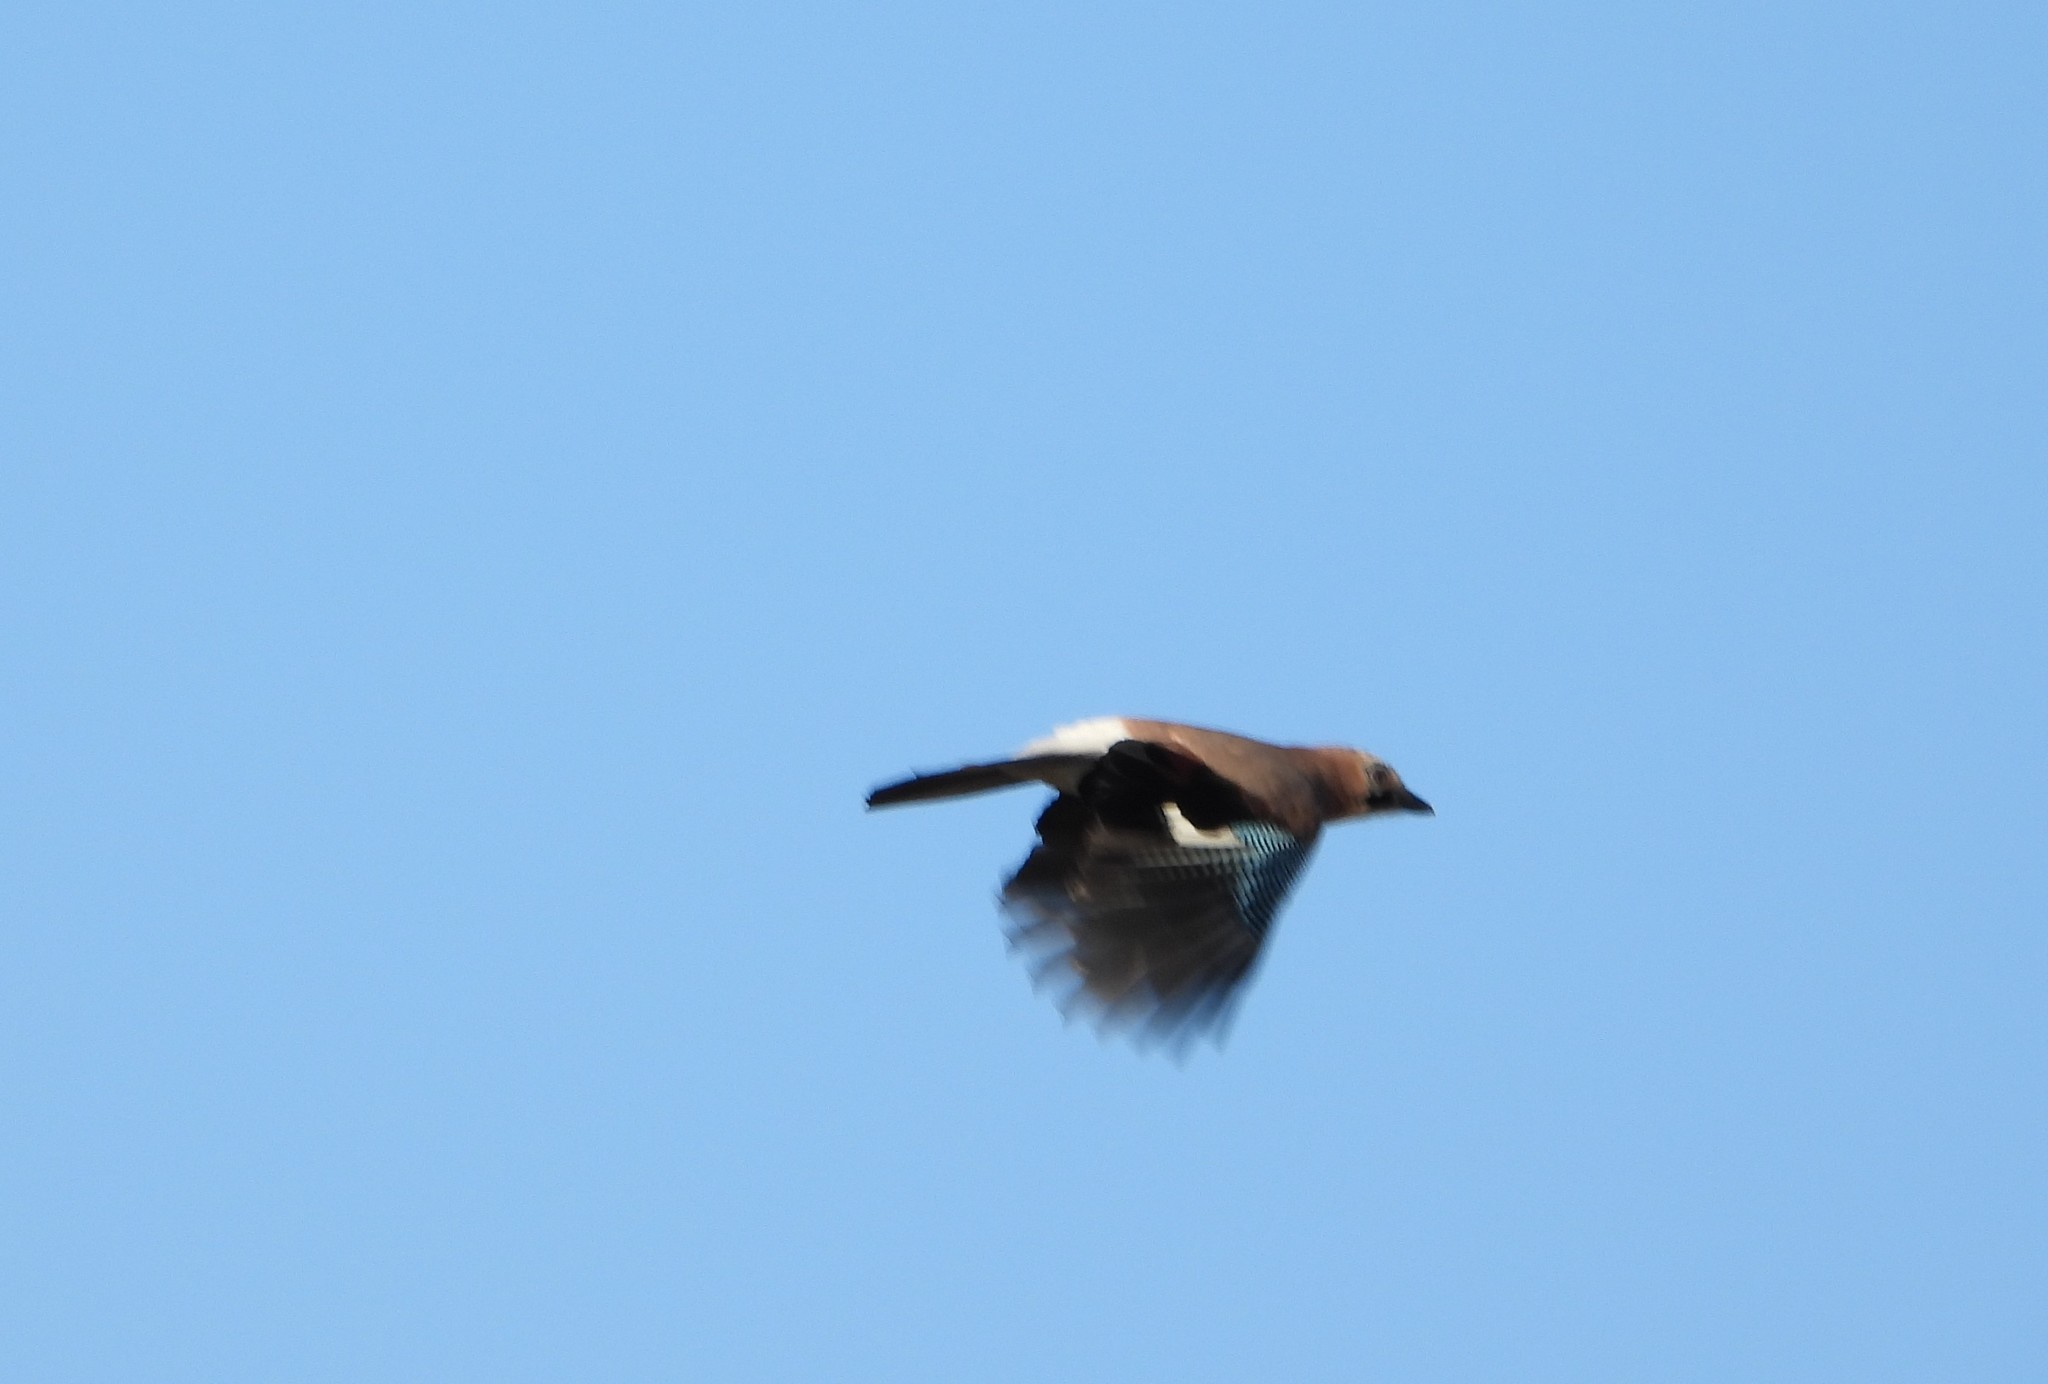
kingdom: Animalia
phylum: Chordata
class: Aves
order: Passeriformes
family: Corvidae
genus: Garrulus
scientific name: Garrulus glandarius
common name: Eurasian jay
